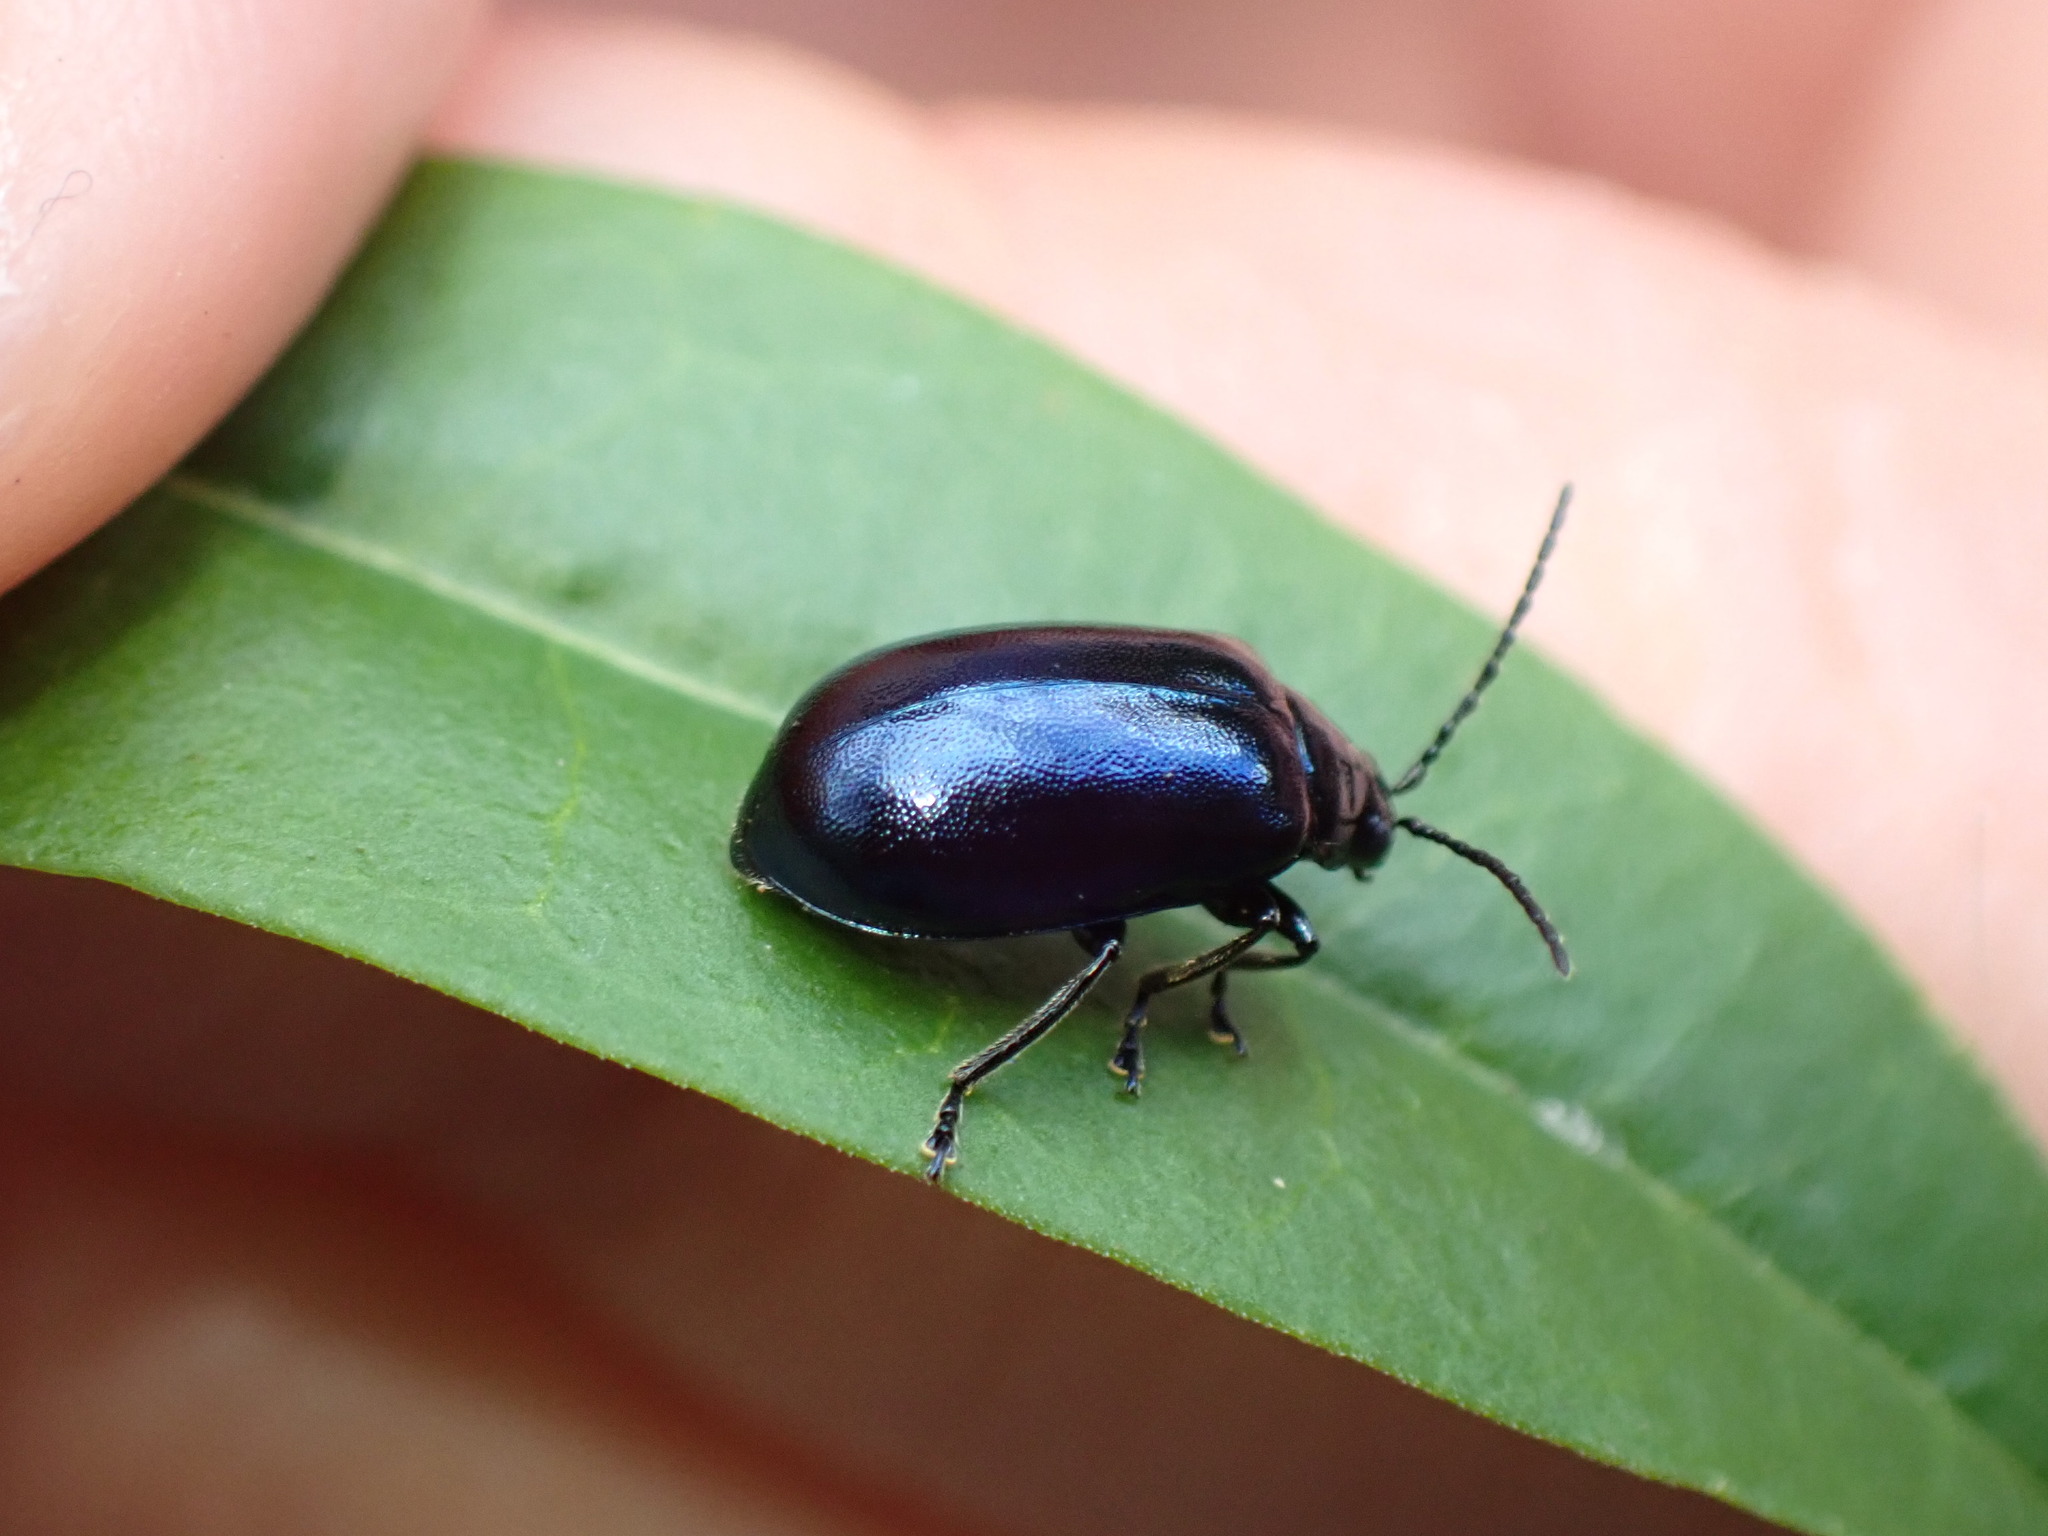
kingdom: Animalia
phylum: Arthropoda
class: Insecta
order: Coleoptera
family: Chrysomelidae
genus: Agelastica
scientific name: Agelastica alni
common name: Alder leaf beetle
